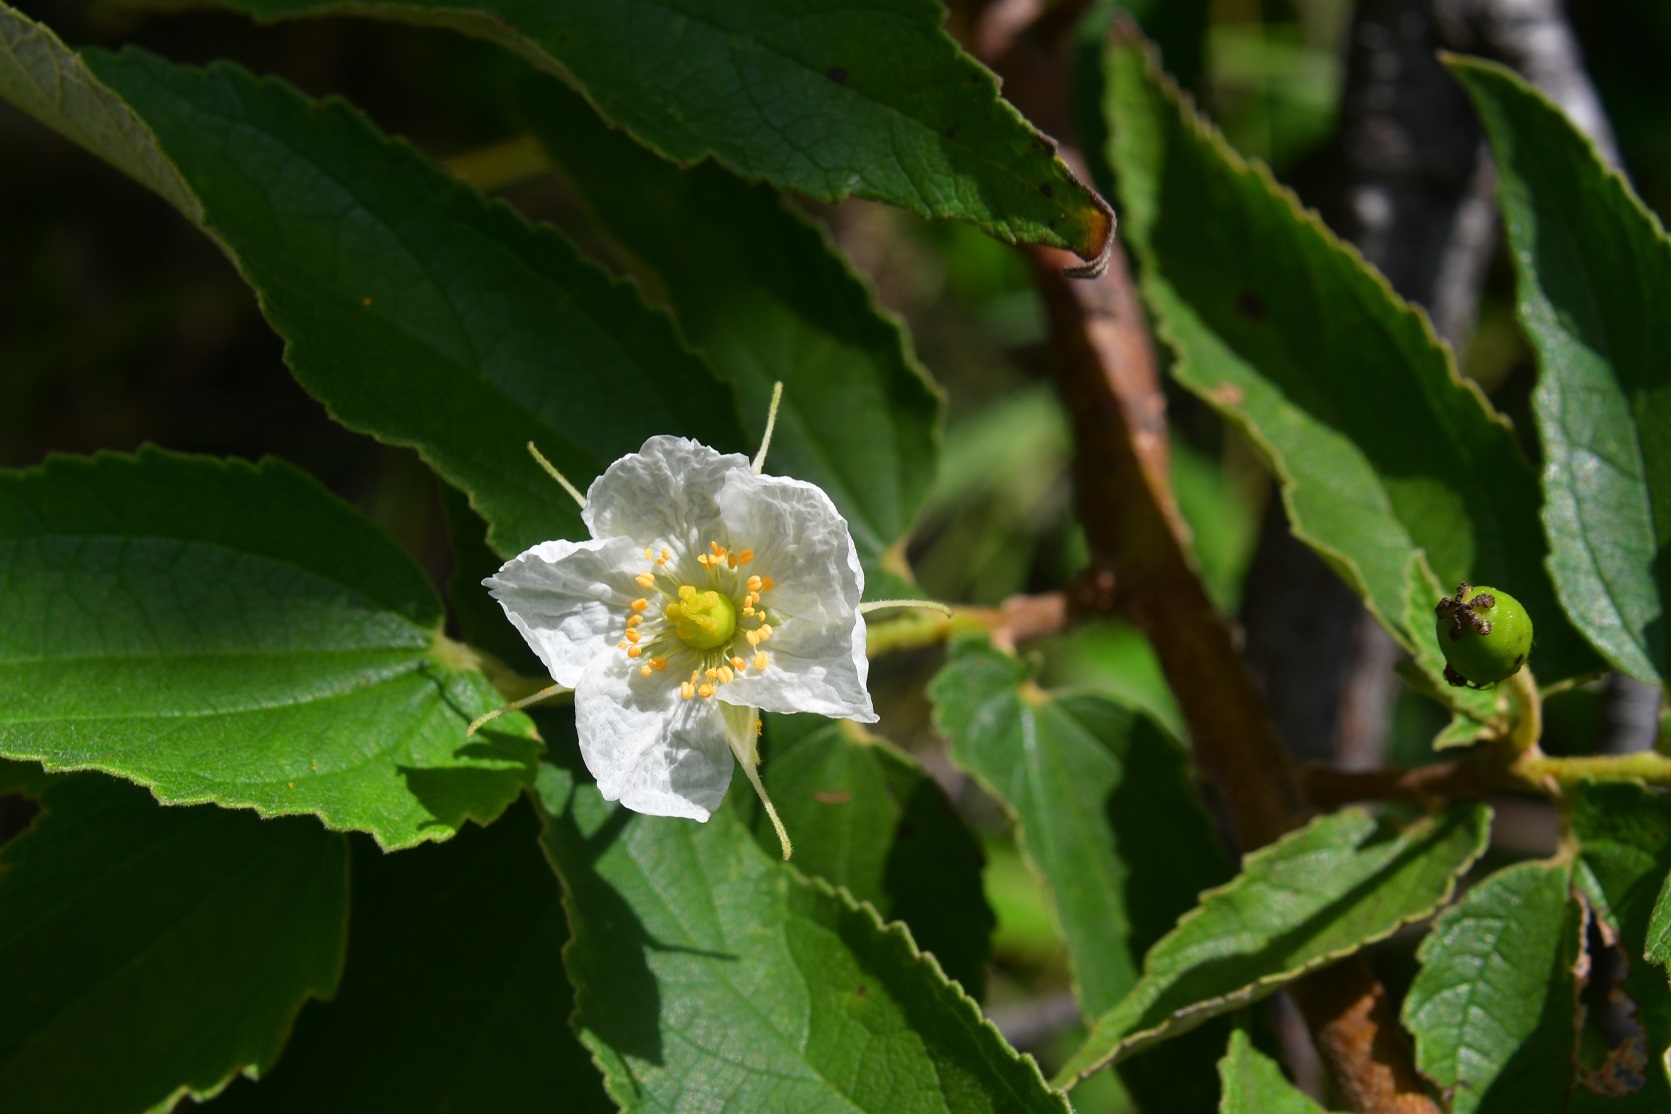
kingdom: Plantae
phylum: Tracheophyta
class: Magnoliopsida
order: Malvales
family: Muntingiaceae
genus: Muntingia
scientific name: Muntingia calabura
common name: Strawberrytree
